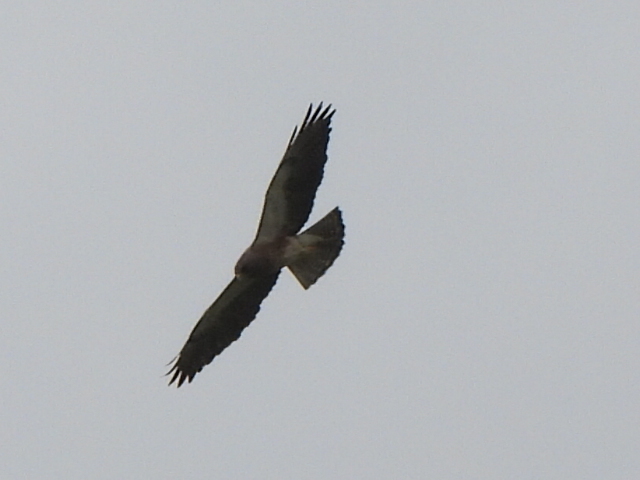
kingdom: Animalia
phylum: Chordata
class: Aves
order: Accipitriformes
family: Accipitridae
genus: Buteo
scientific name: Buteo swainsoni
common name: Swainson's hawk
